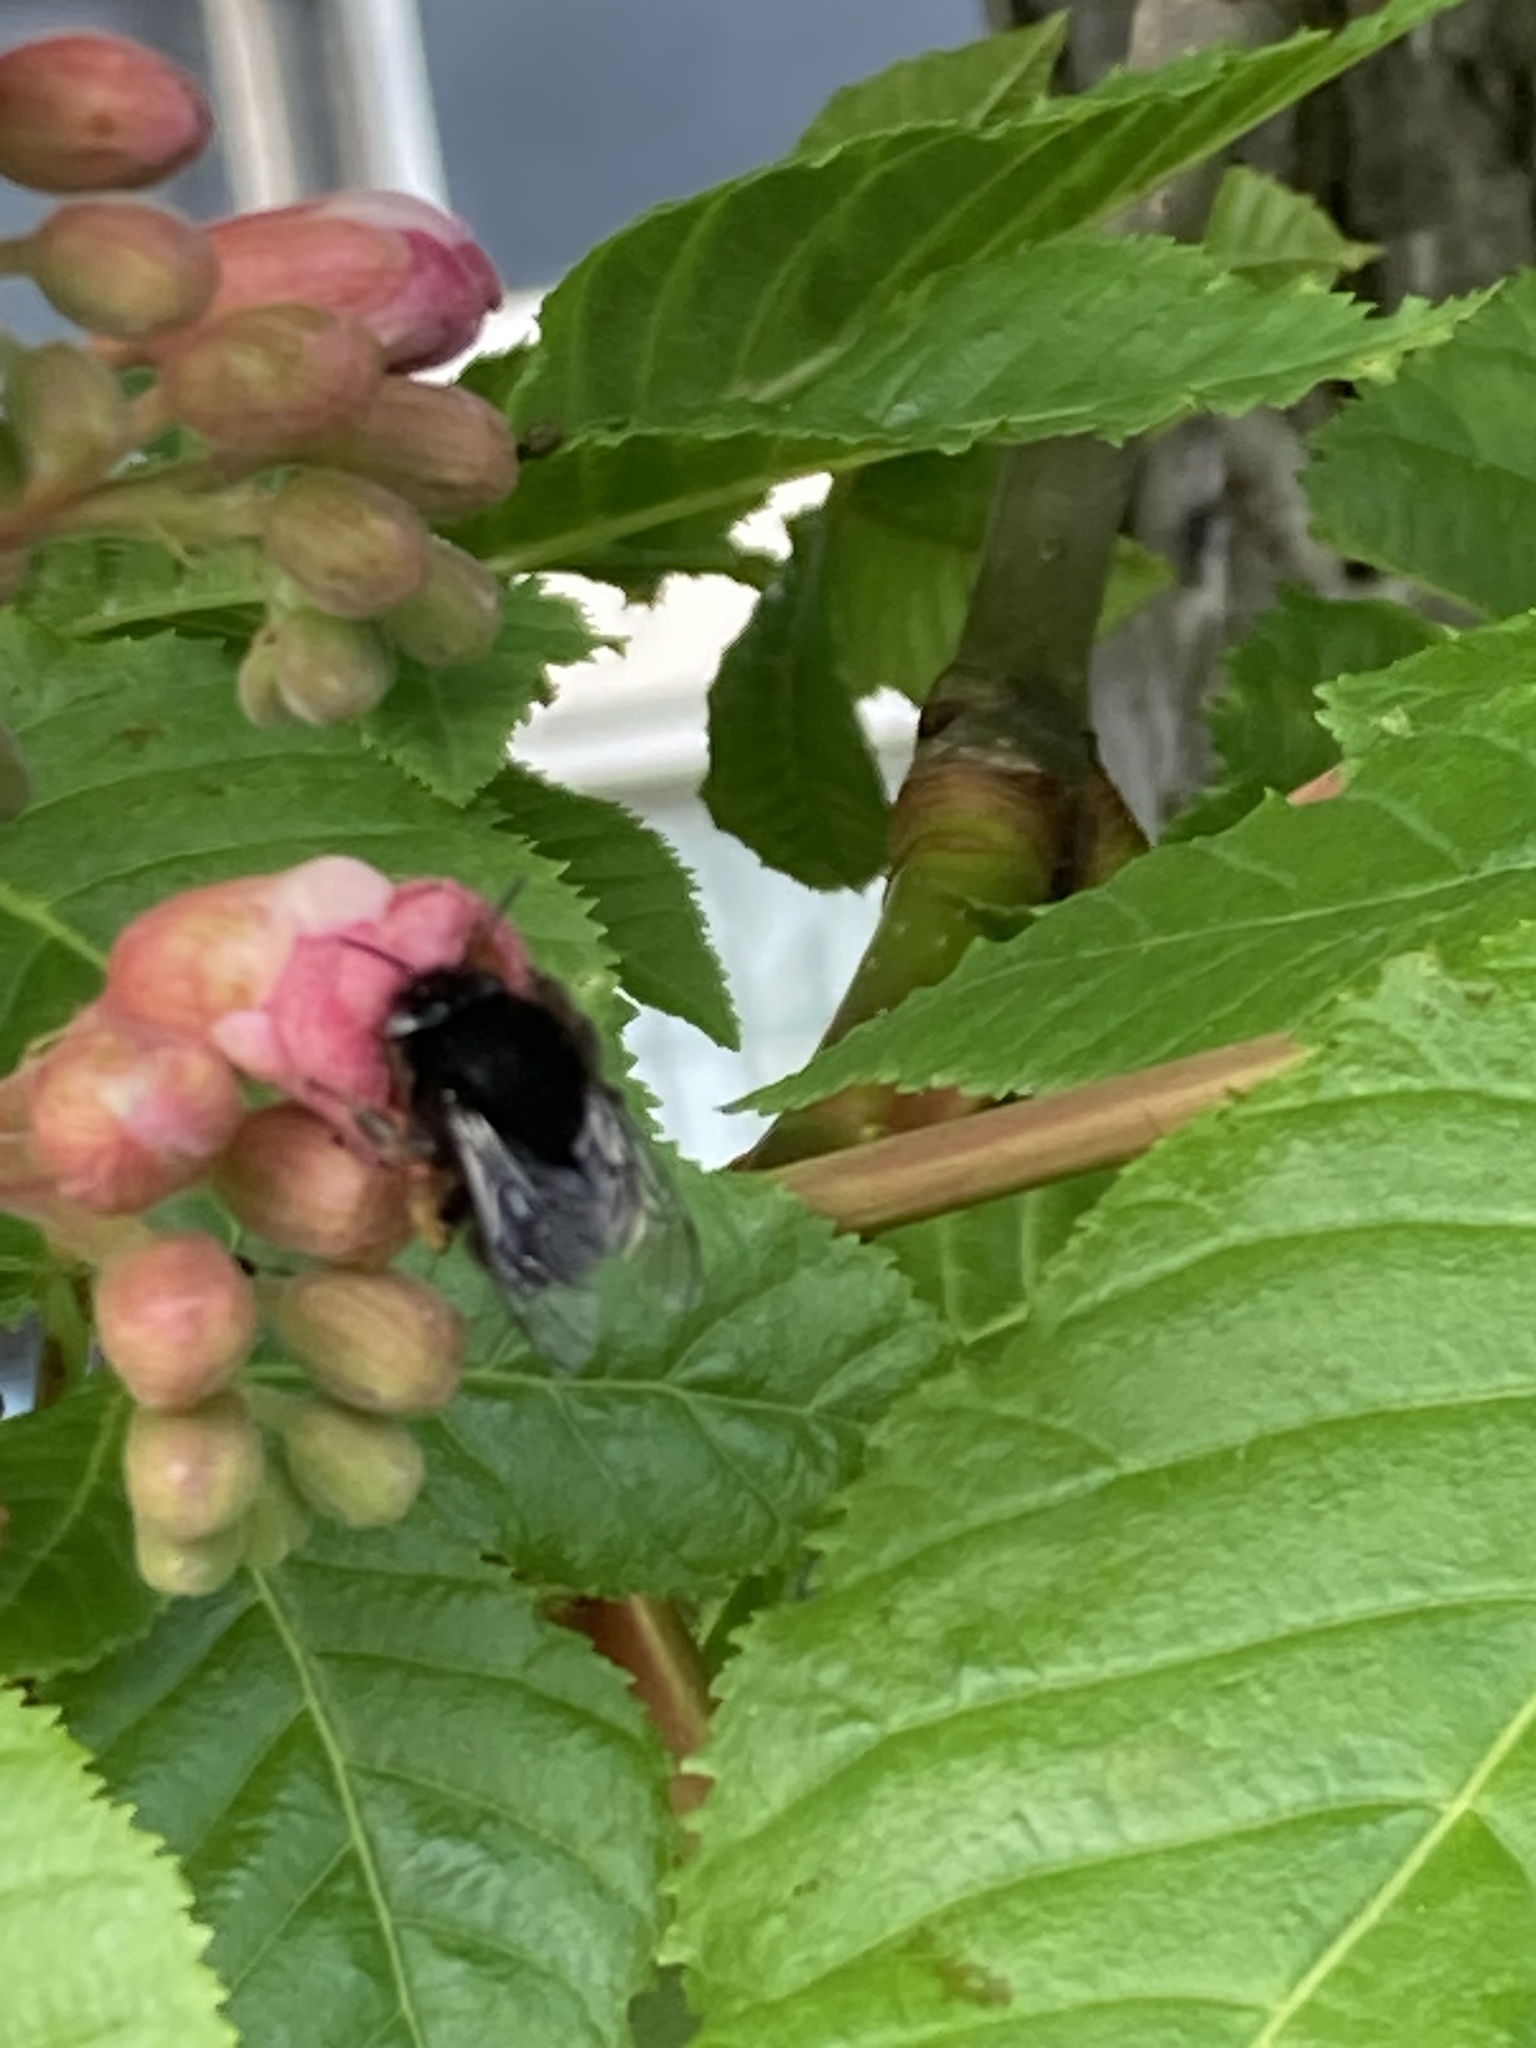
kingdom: Animalia
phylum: Arthropoda
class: Insecta
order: Hymenoptera
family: Apidae
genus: Anthophora
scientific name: Anthophora plumipes
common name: Hairy-footed flower bee
